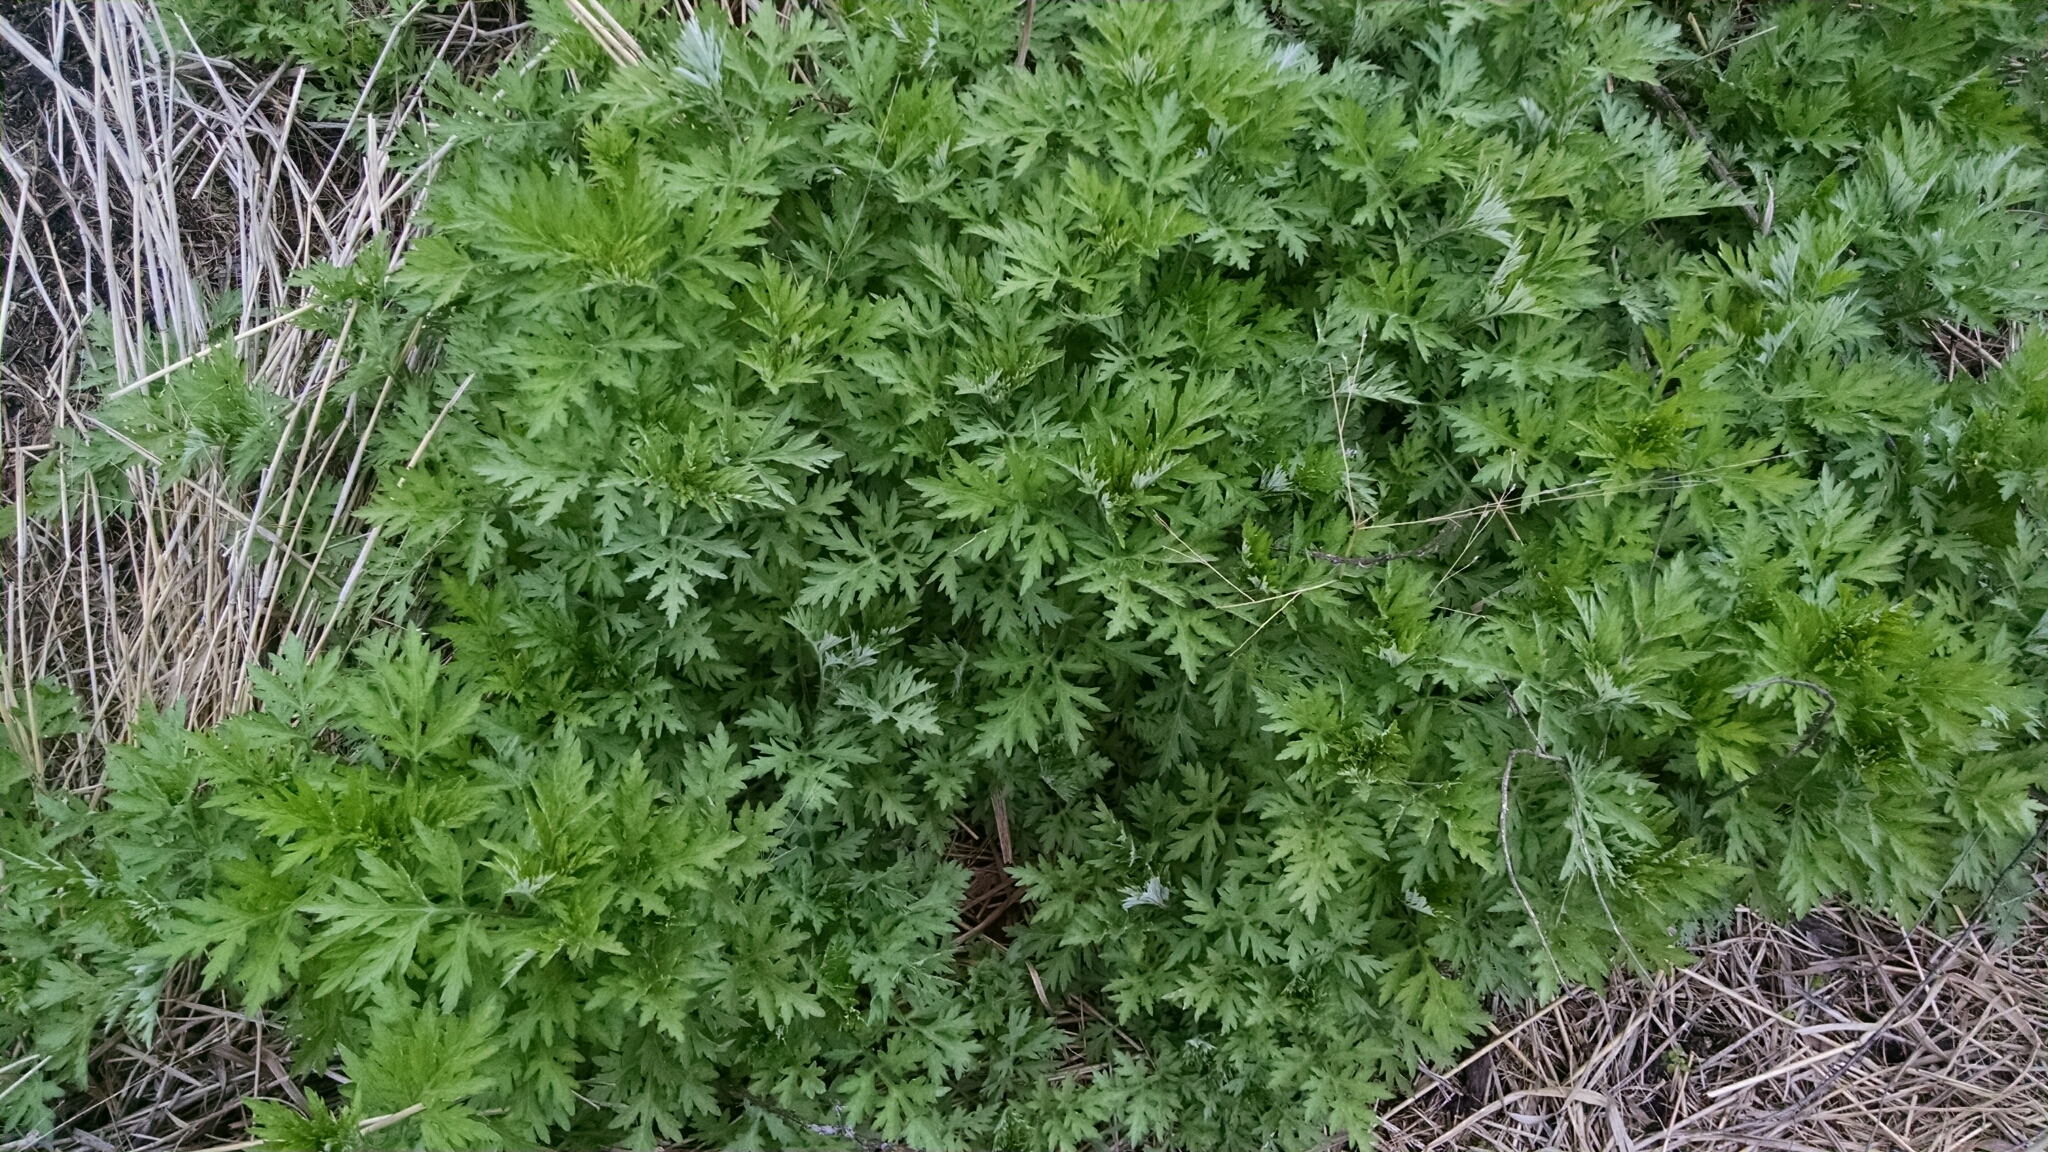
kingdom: Plantae
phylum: Tracheophyta
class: Magnoliopsida
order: Asterales
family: Asteraceae
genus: Artemisia
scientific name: Artemisia vulgaris
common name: Mugwort
